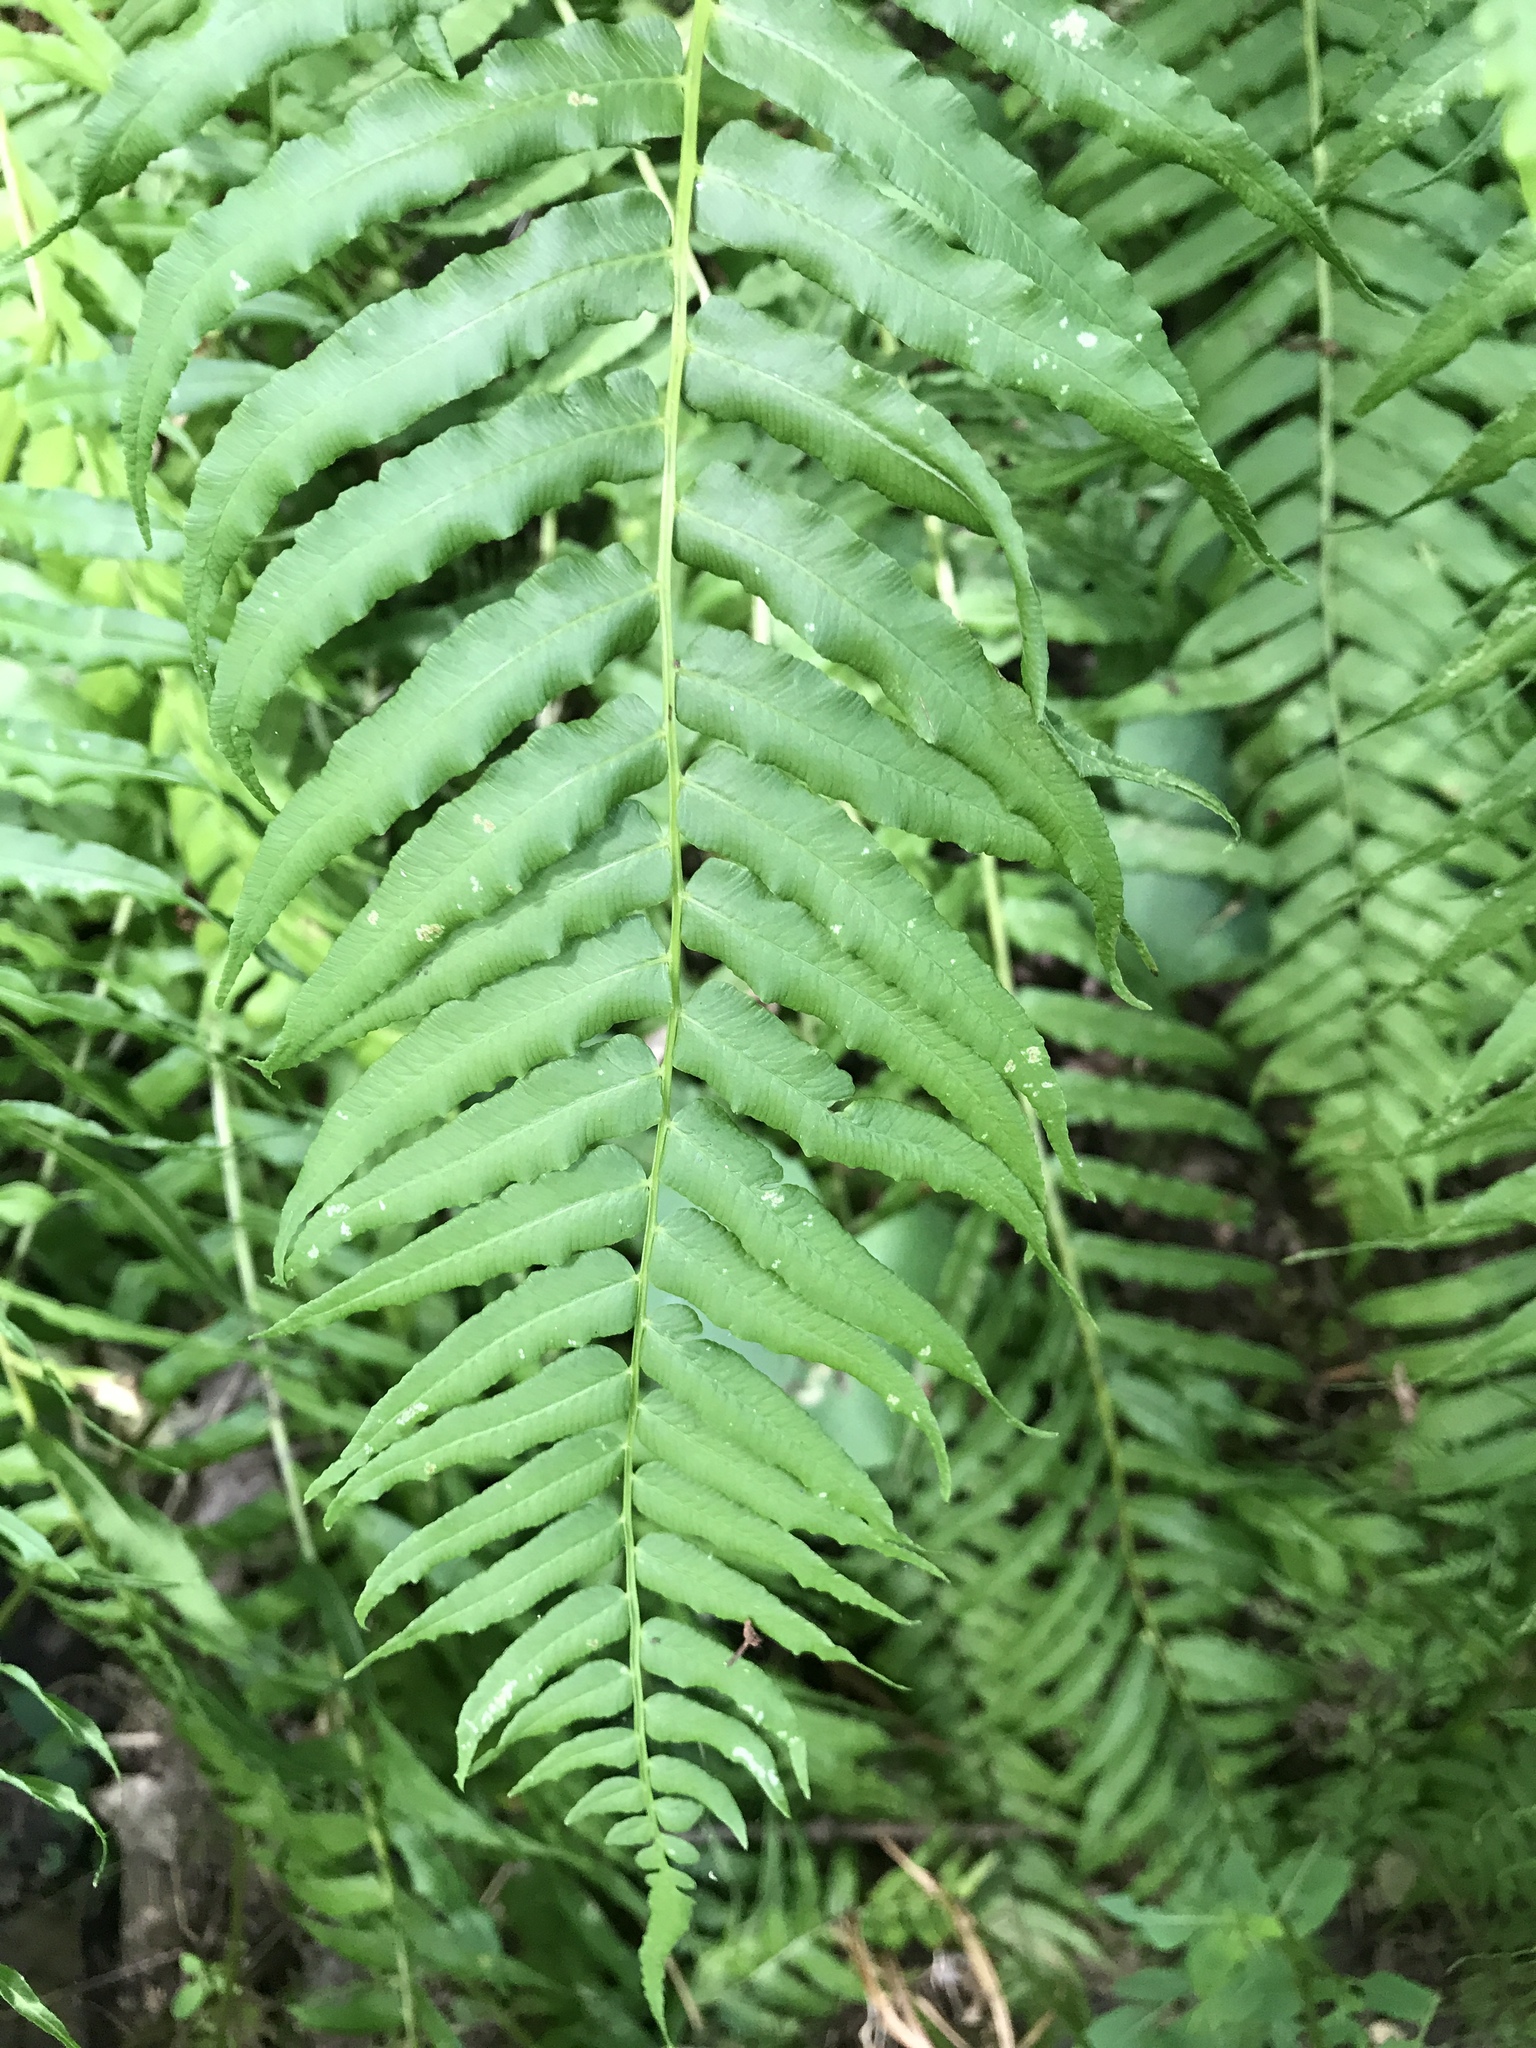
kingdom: Plantae
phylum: Tracheophyta
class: Polypodiopsida
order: Polypodiales
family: Diplaziopsidaceae
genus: Homalosorus
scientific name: Homalosorus pycnocarpos
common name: Glade fern
